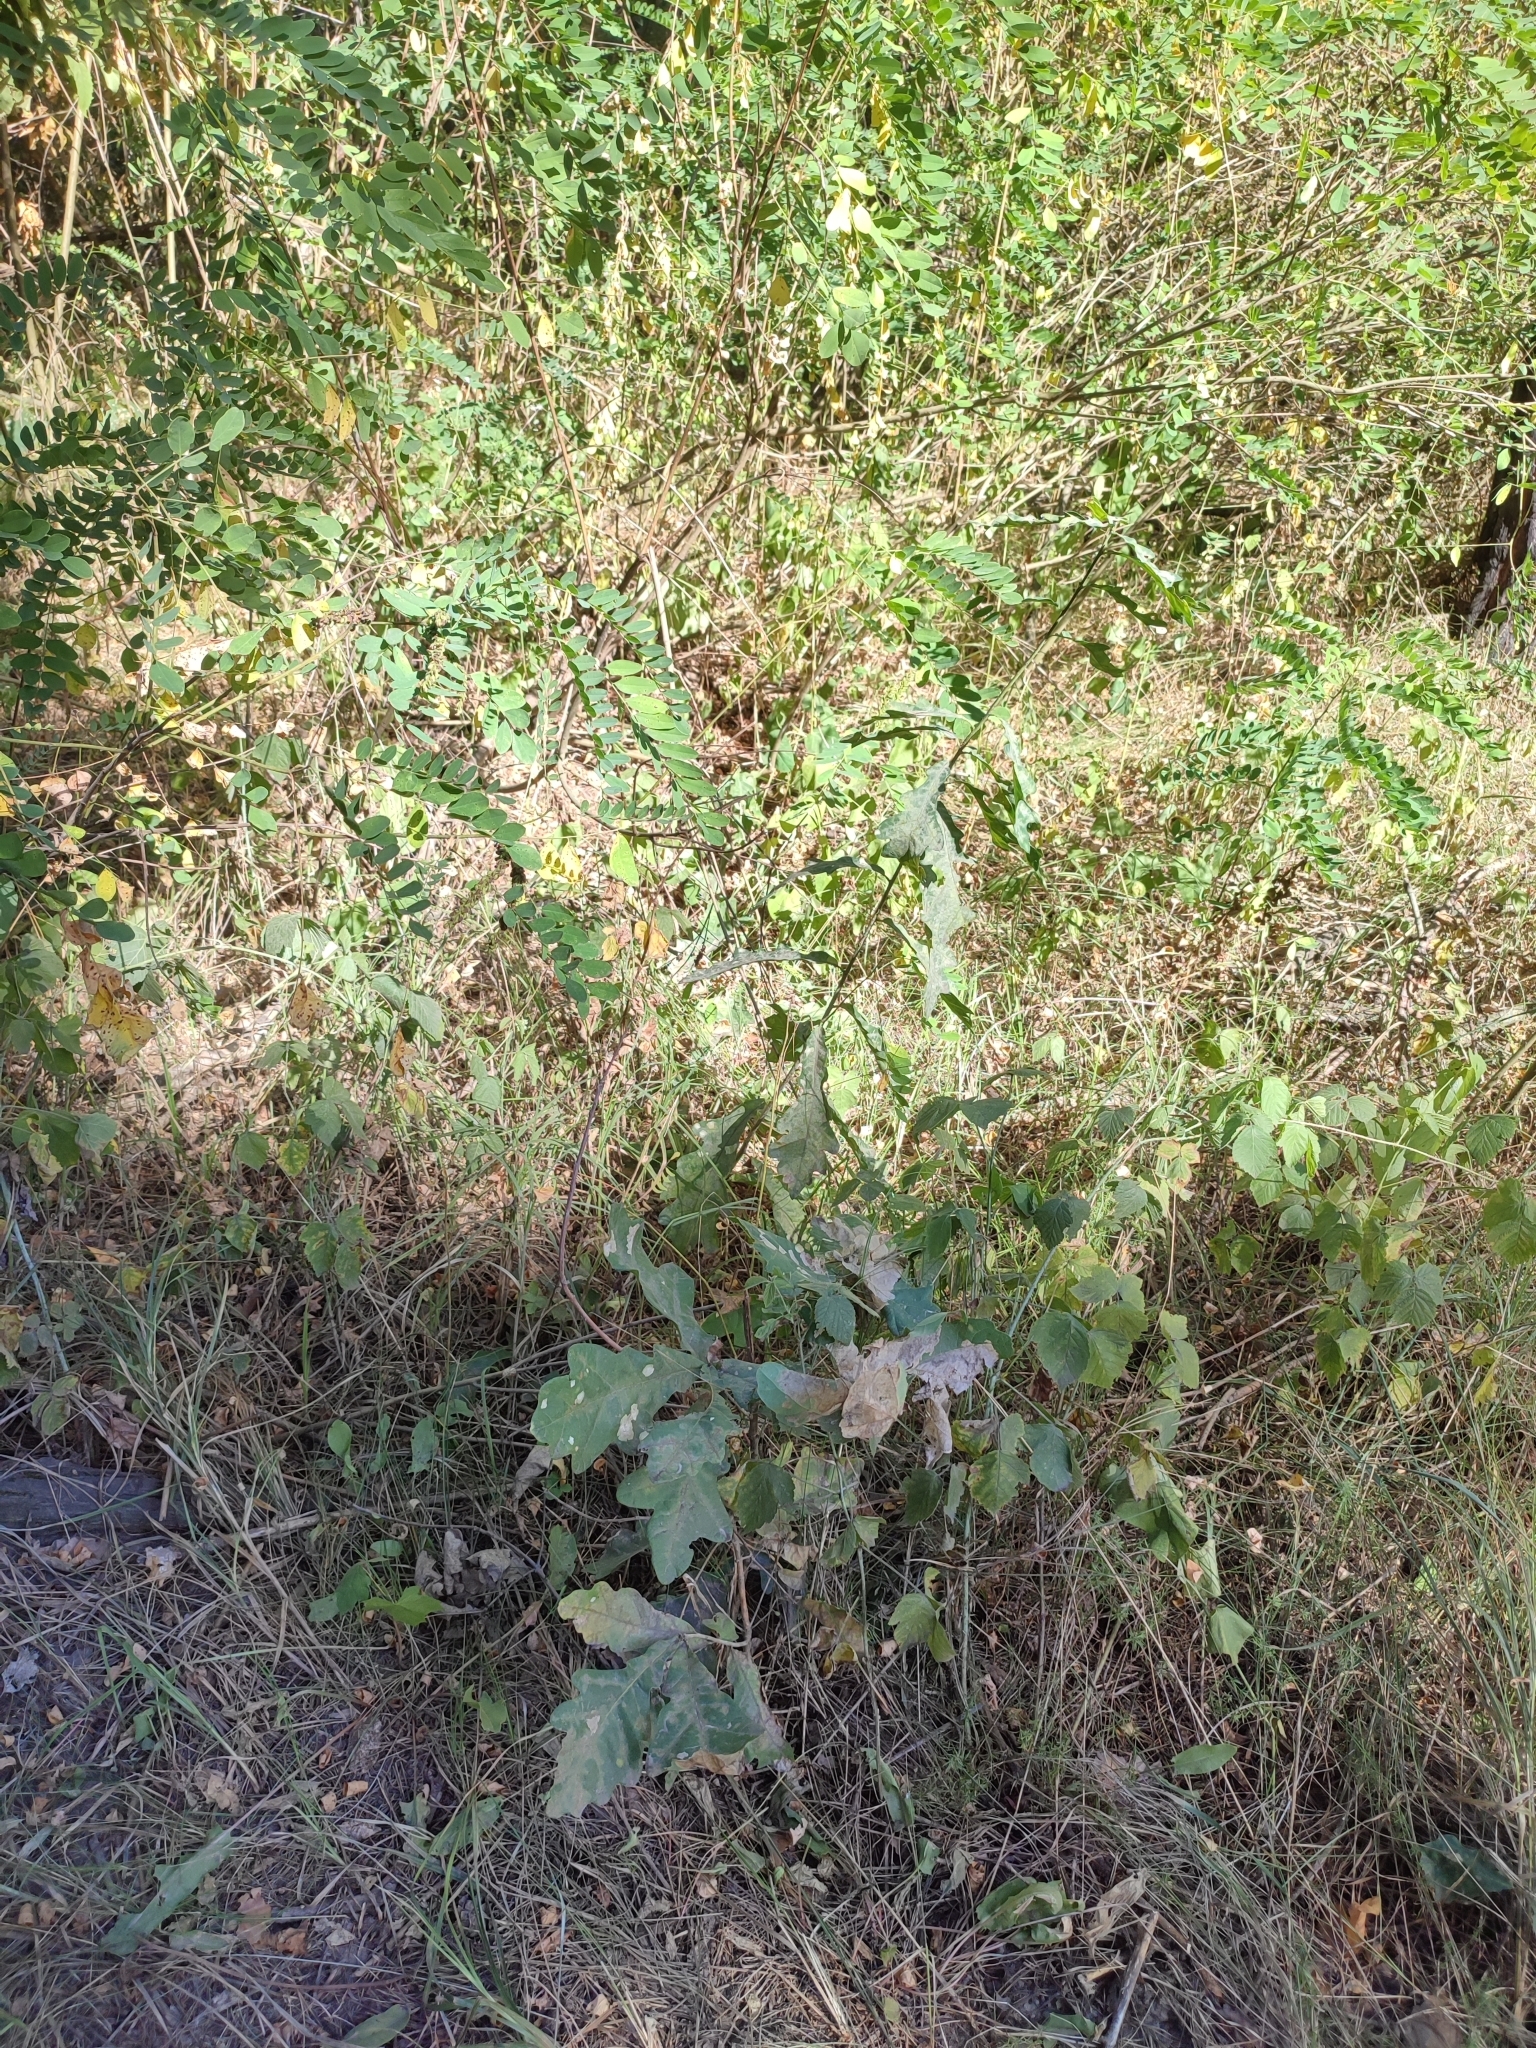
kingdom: Plantae
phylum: Tracheophyta
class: Magnoliopsida
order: Fagales
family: Fagaceae
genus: Quercus
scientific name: Quercus robur
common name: Pedunculate oak
